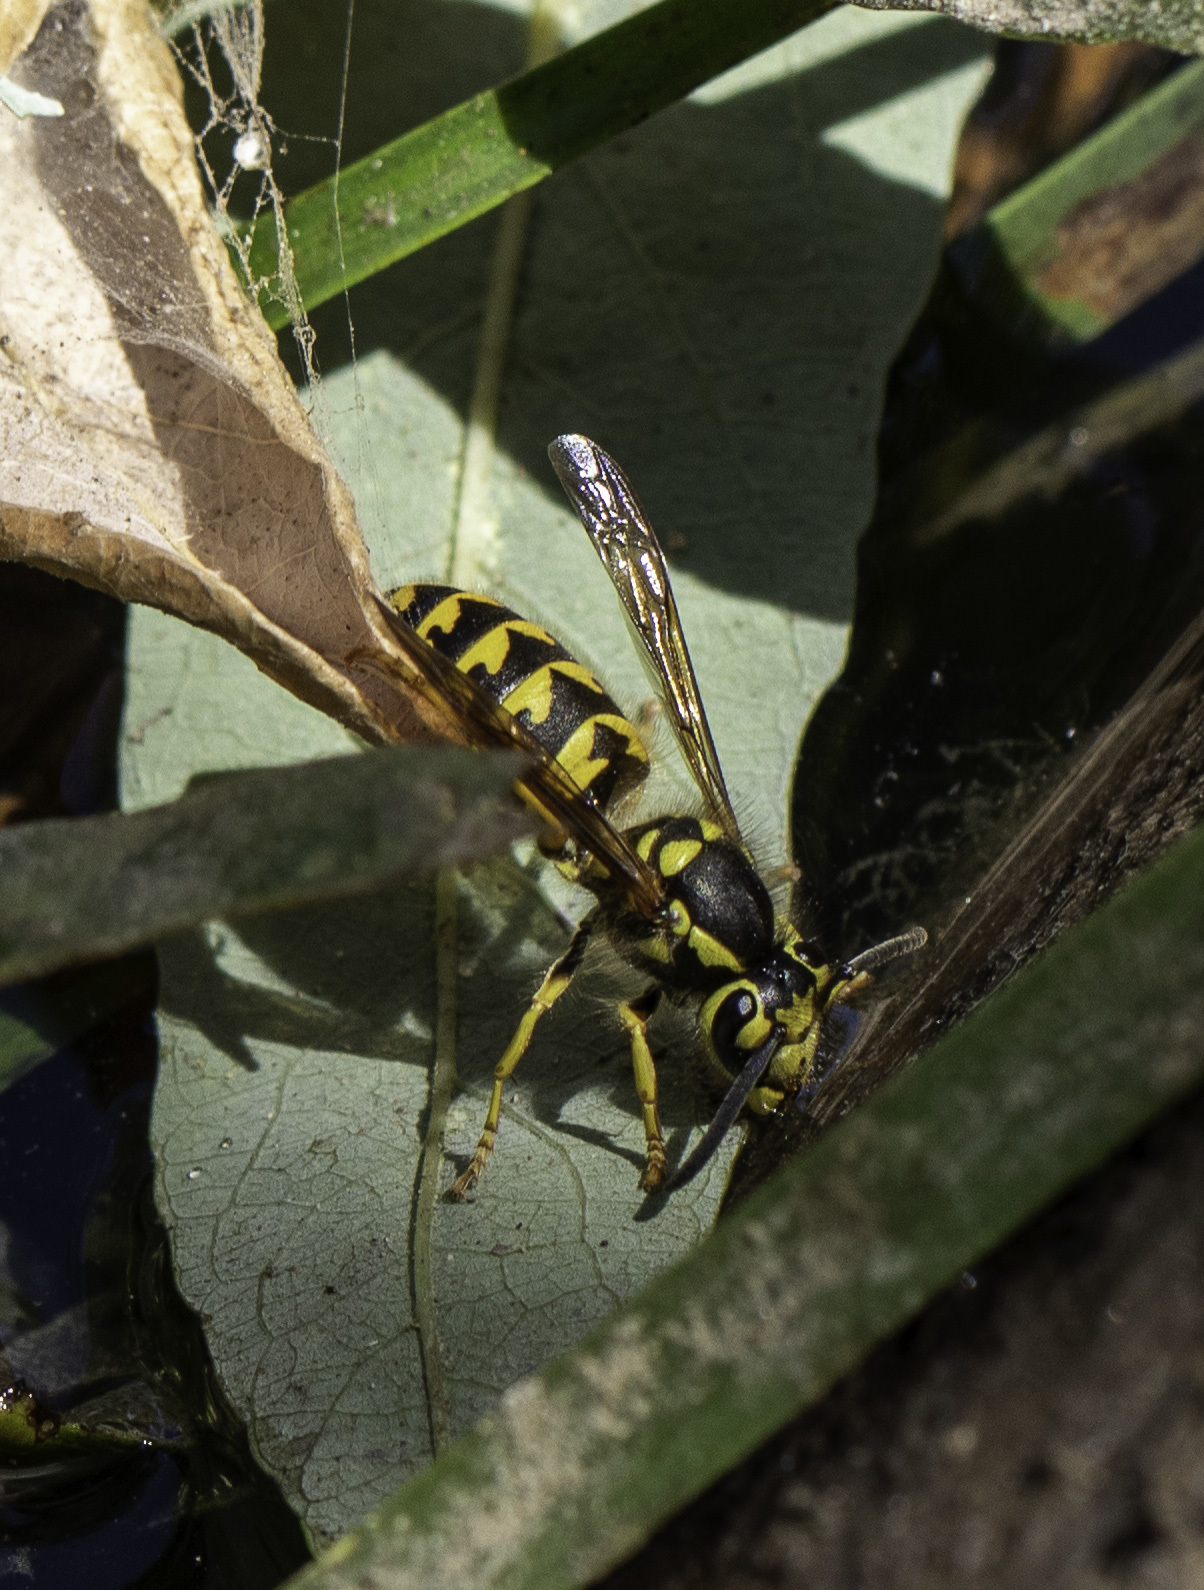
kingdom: Animalia
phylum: Arthropoda
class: Insecta
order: Hymenoptera
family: Vespidae
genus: Vespula
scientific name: Vespula pensylvanica
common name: Western yellowjacket
